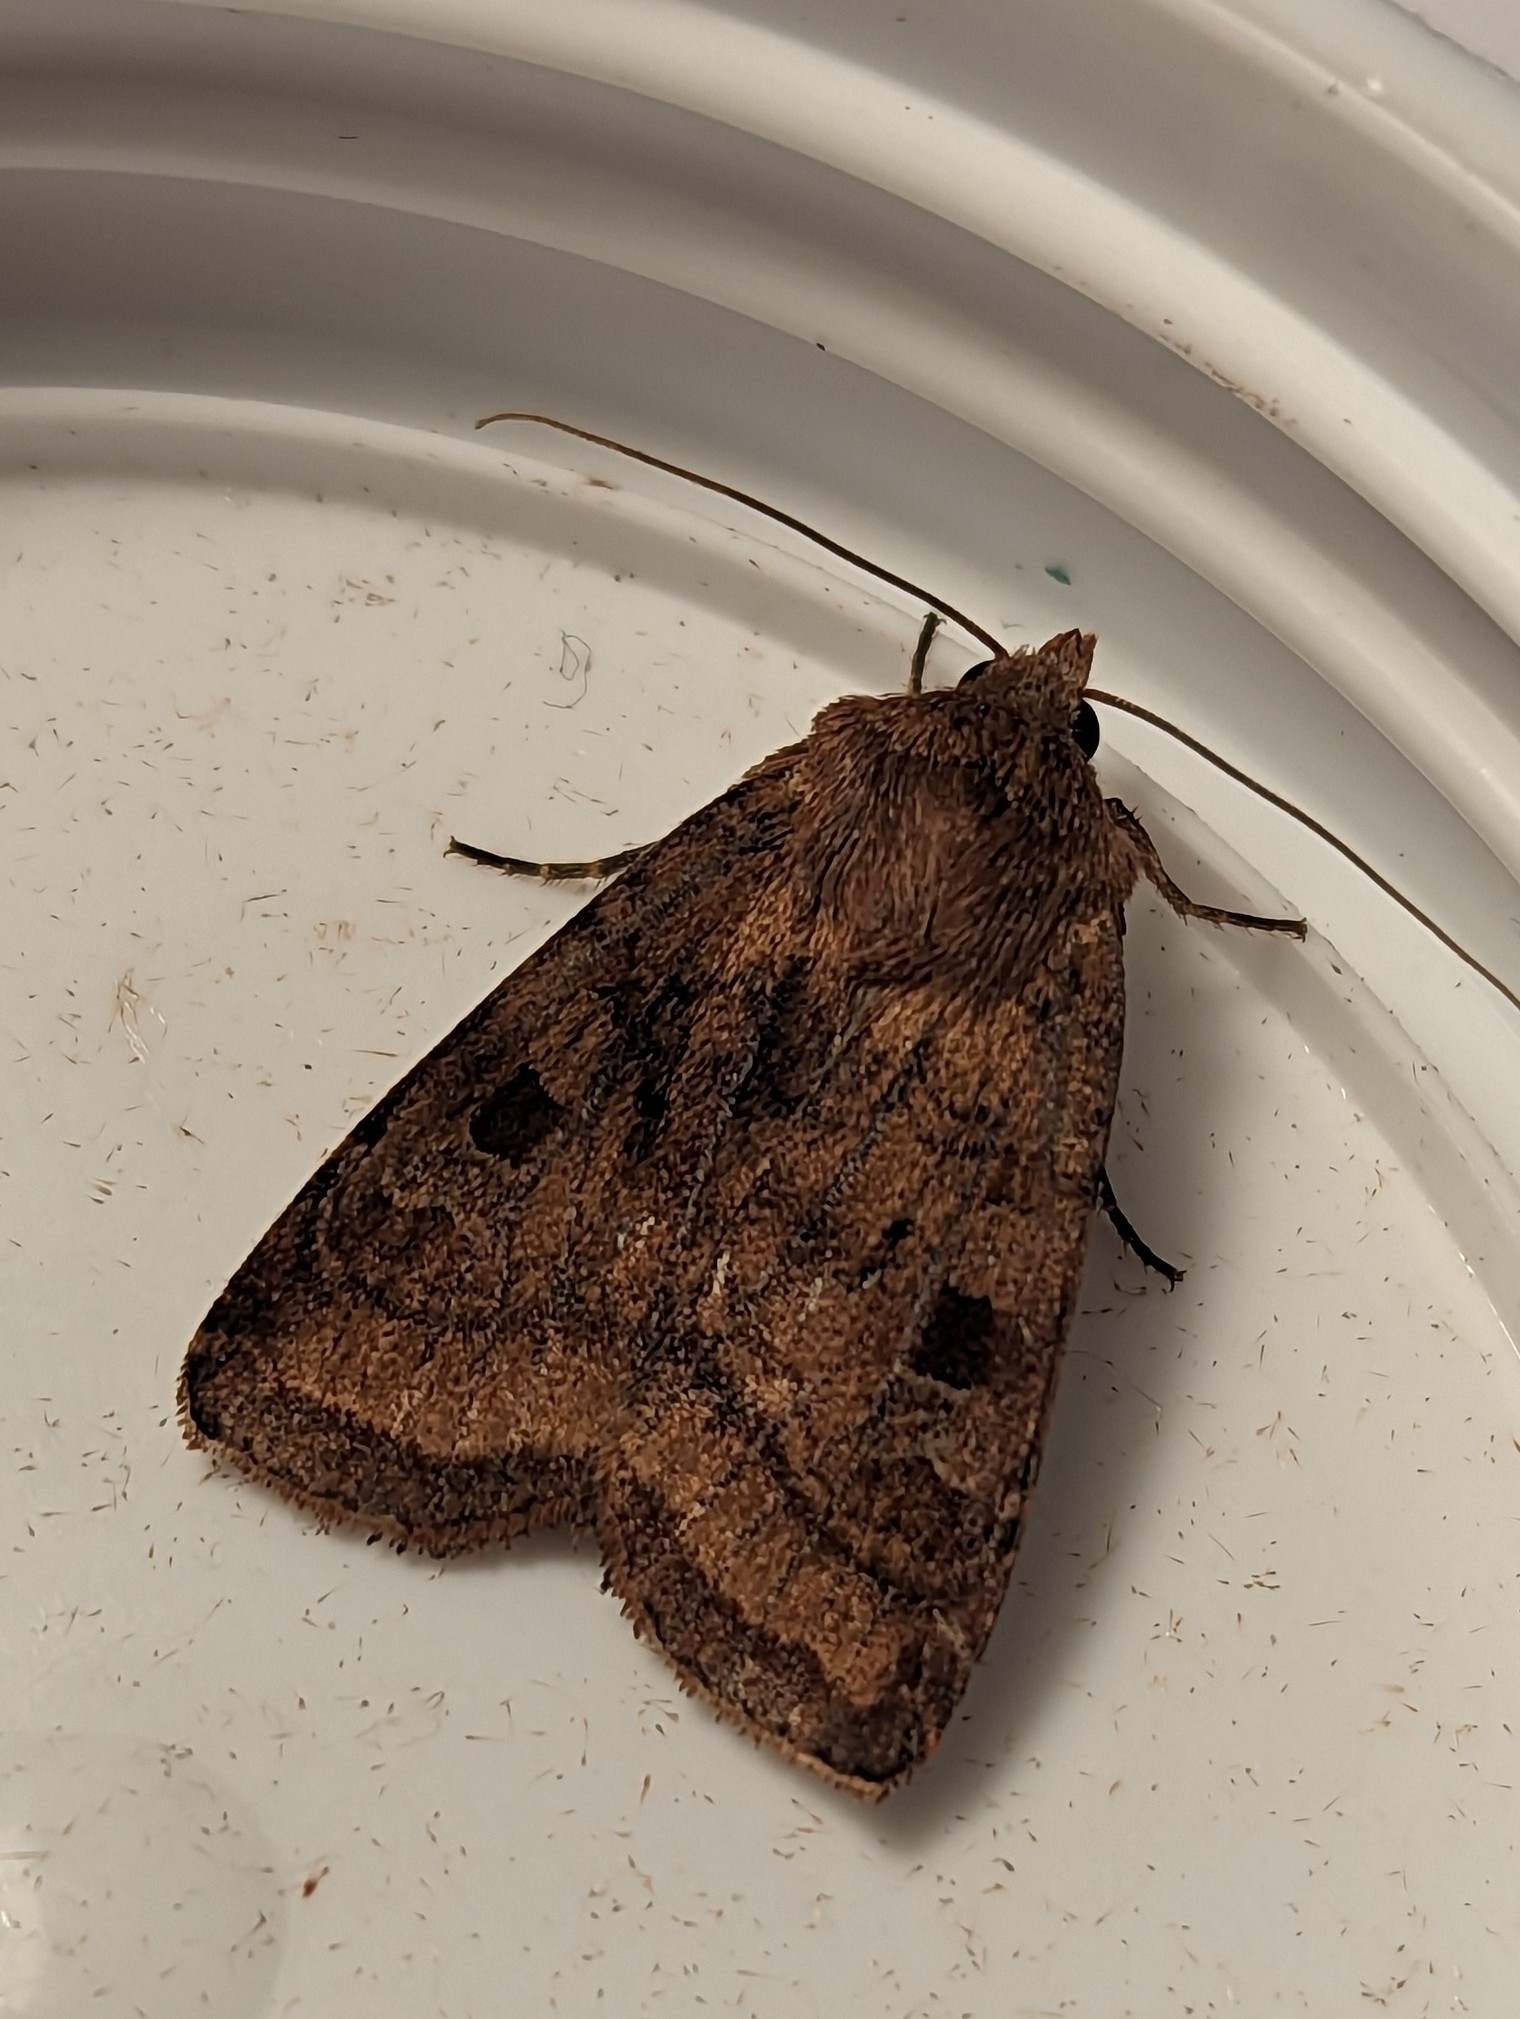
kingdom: Animalia
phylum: Arthropoda
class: Insecta
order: Lepidoptera
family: Noctuidae
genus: Diarsia
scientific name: Diarsia rubi
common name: Small square-spot
